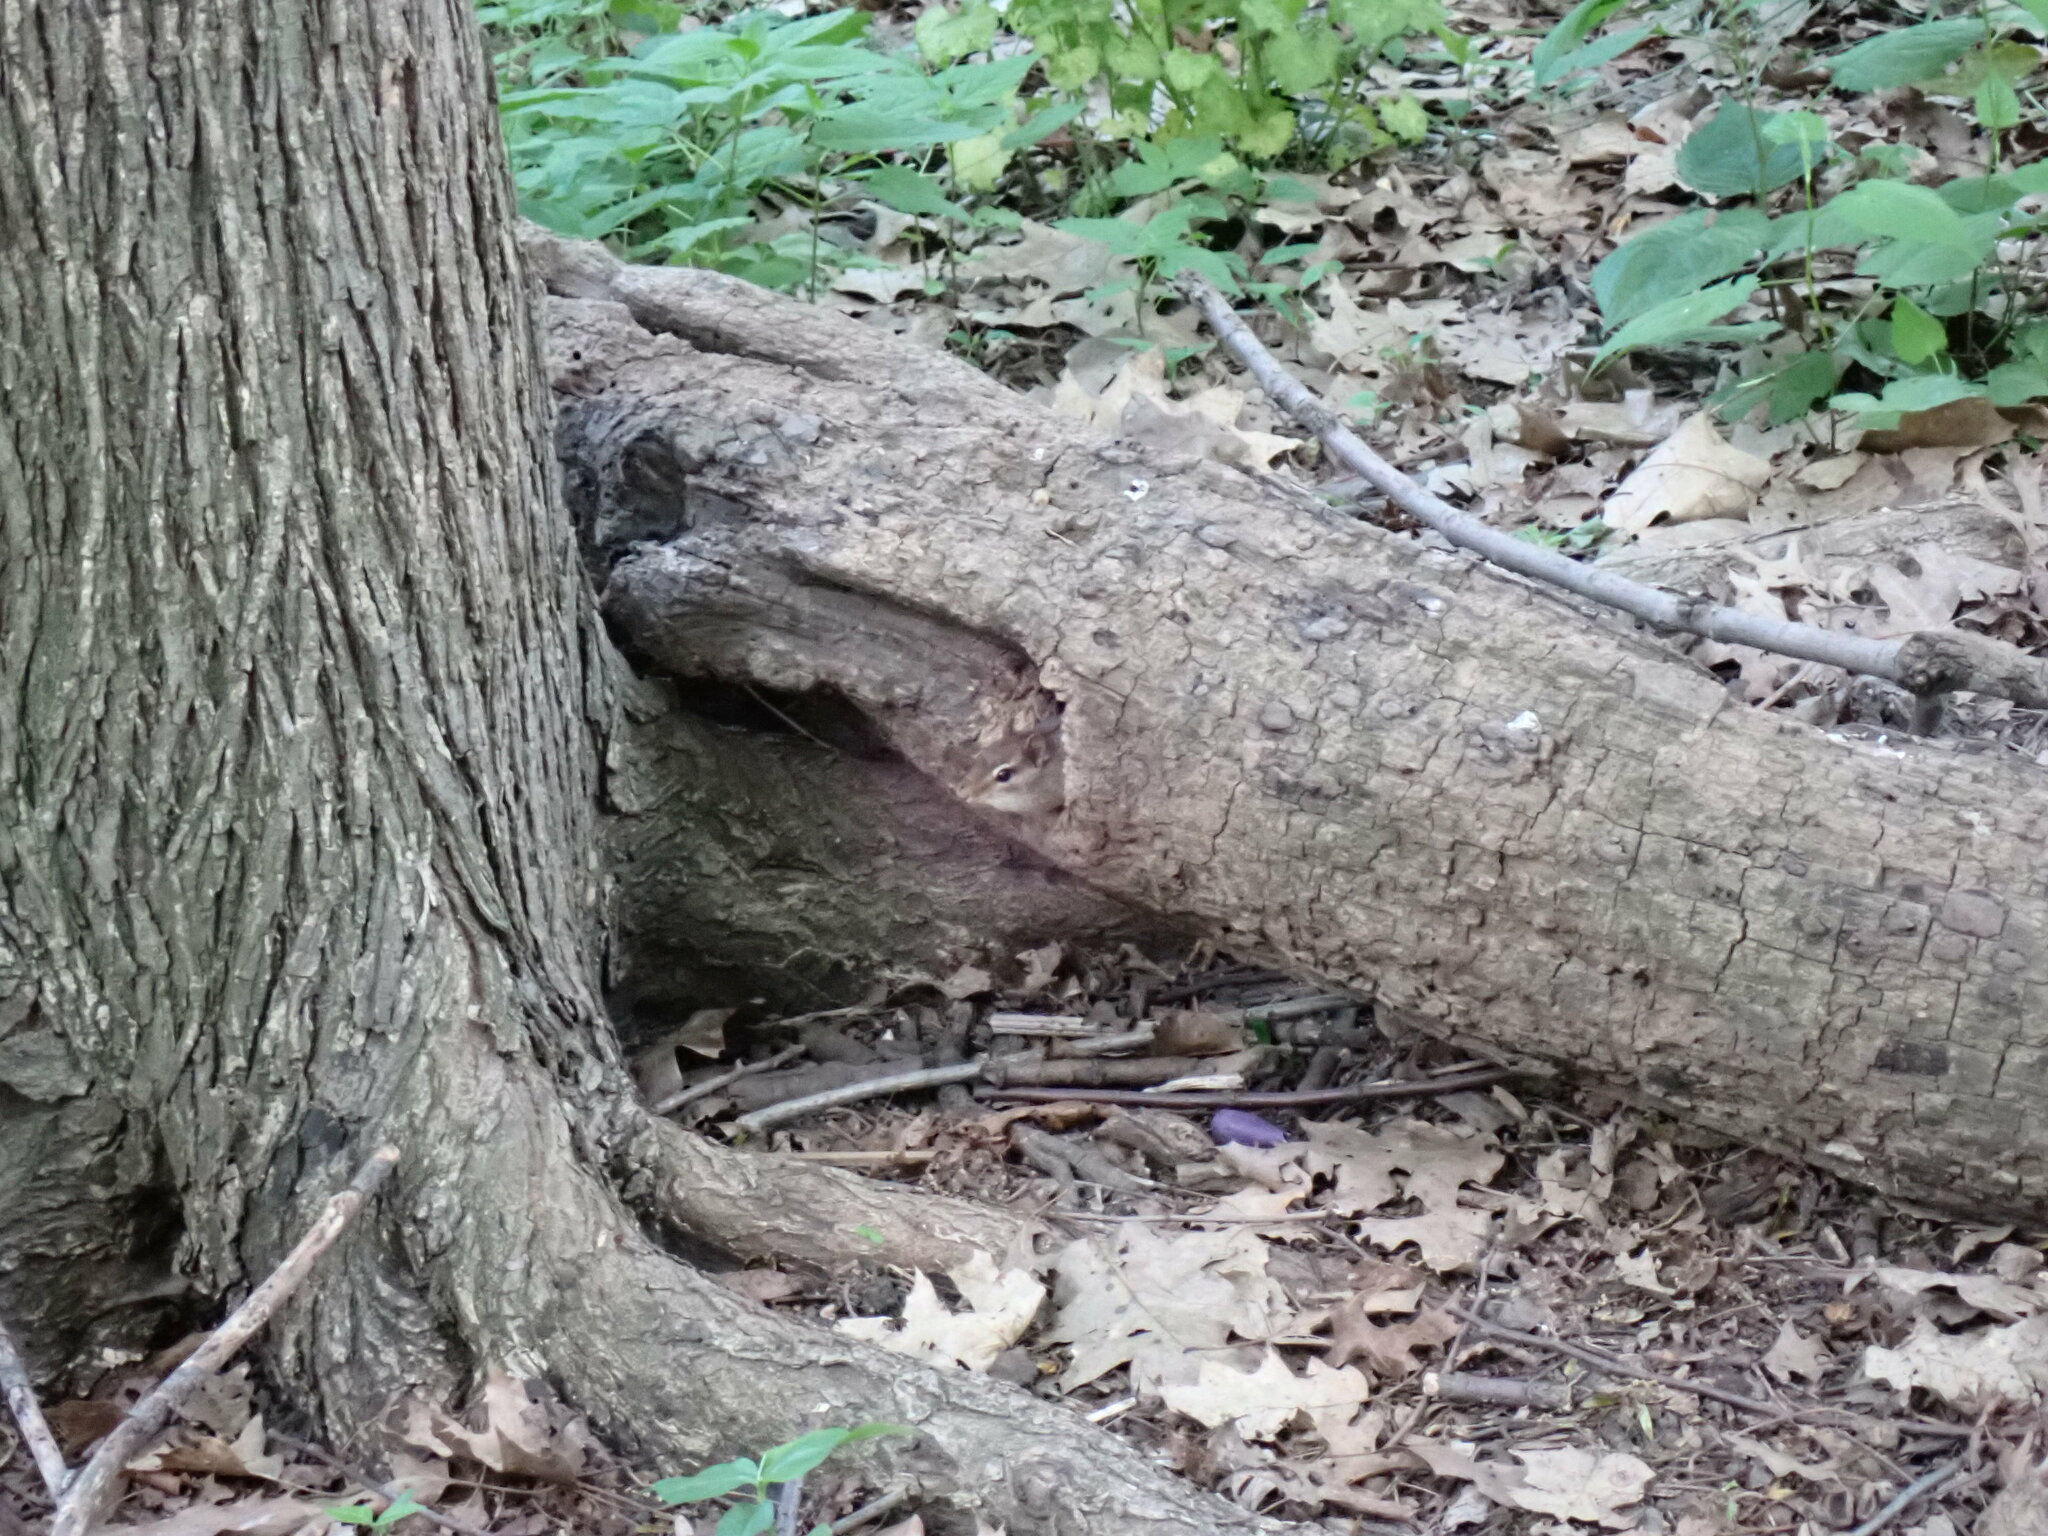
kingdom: Animalia
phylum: Chordata
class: Mammalia
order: Rodentia
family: Sciuridae
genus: Tamias
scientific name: Tamias striatus
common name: Eastern chipmunk
